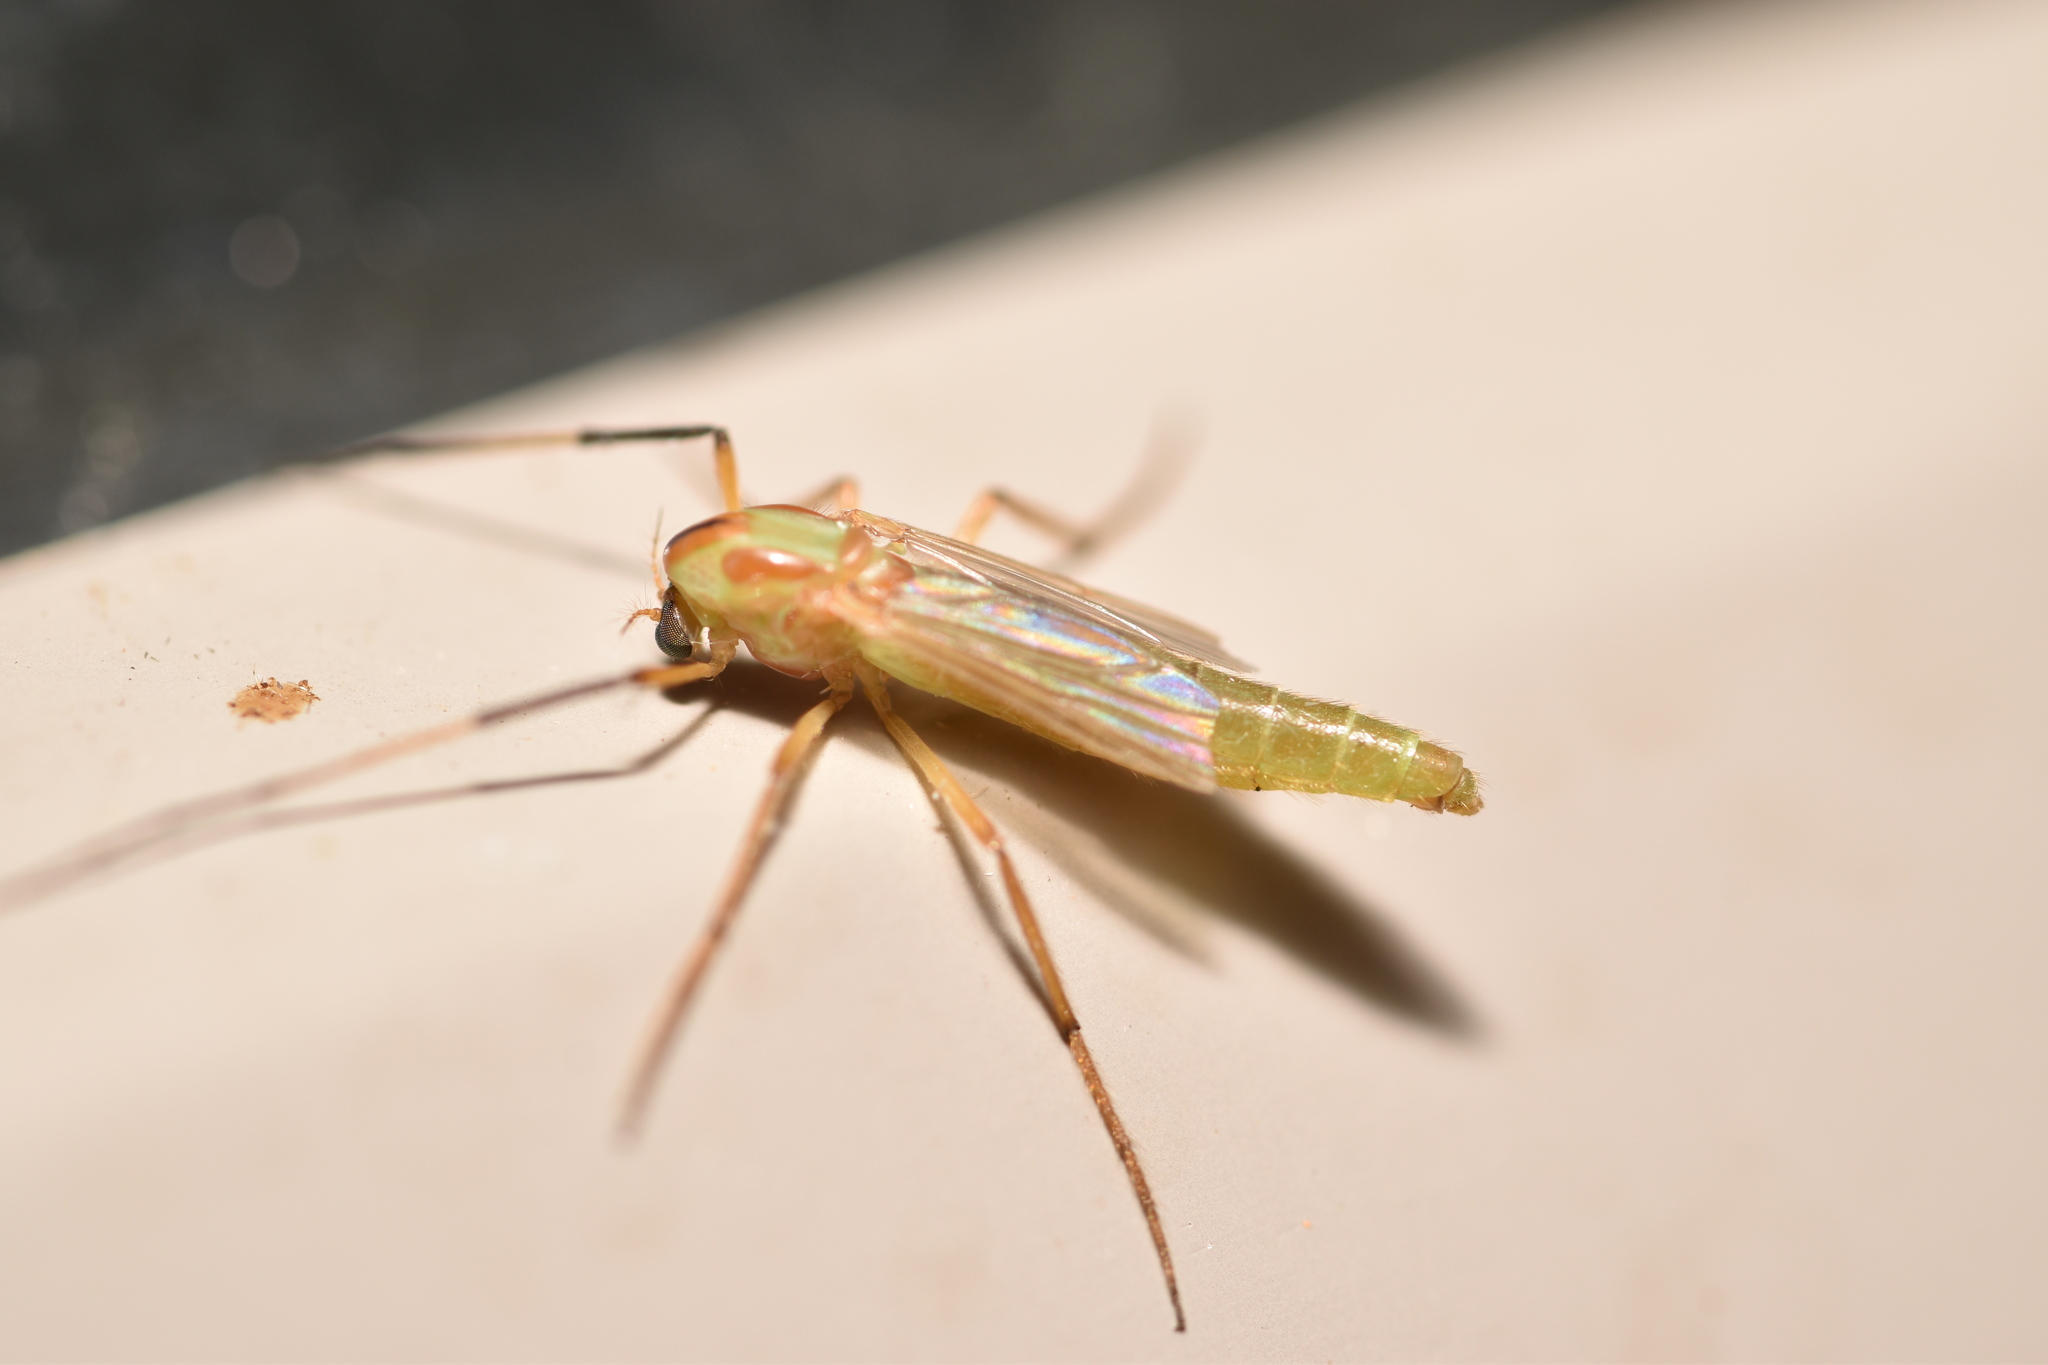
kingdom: Animalia
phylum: Arthropoda
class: Insecta
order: Diptera
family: Chironomidae
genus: Axarus
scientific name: Axarus
